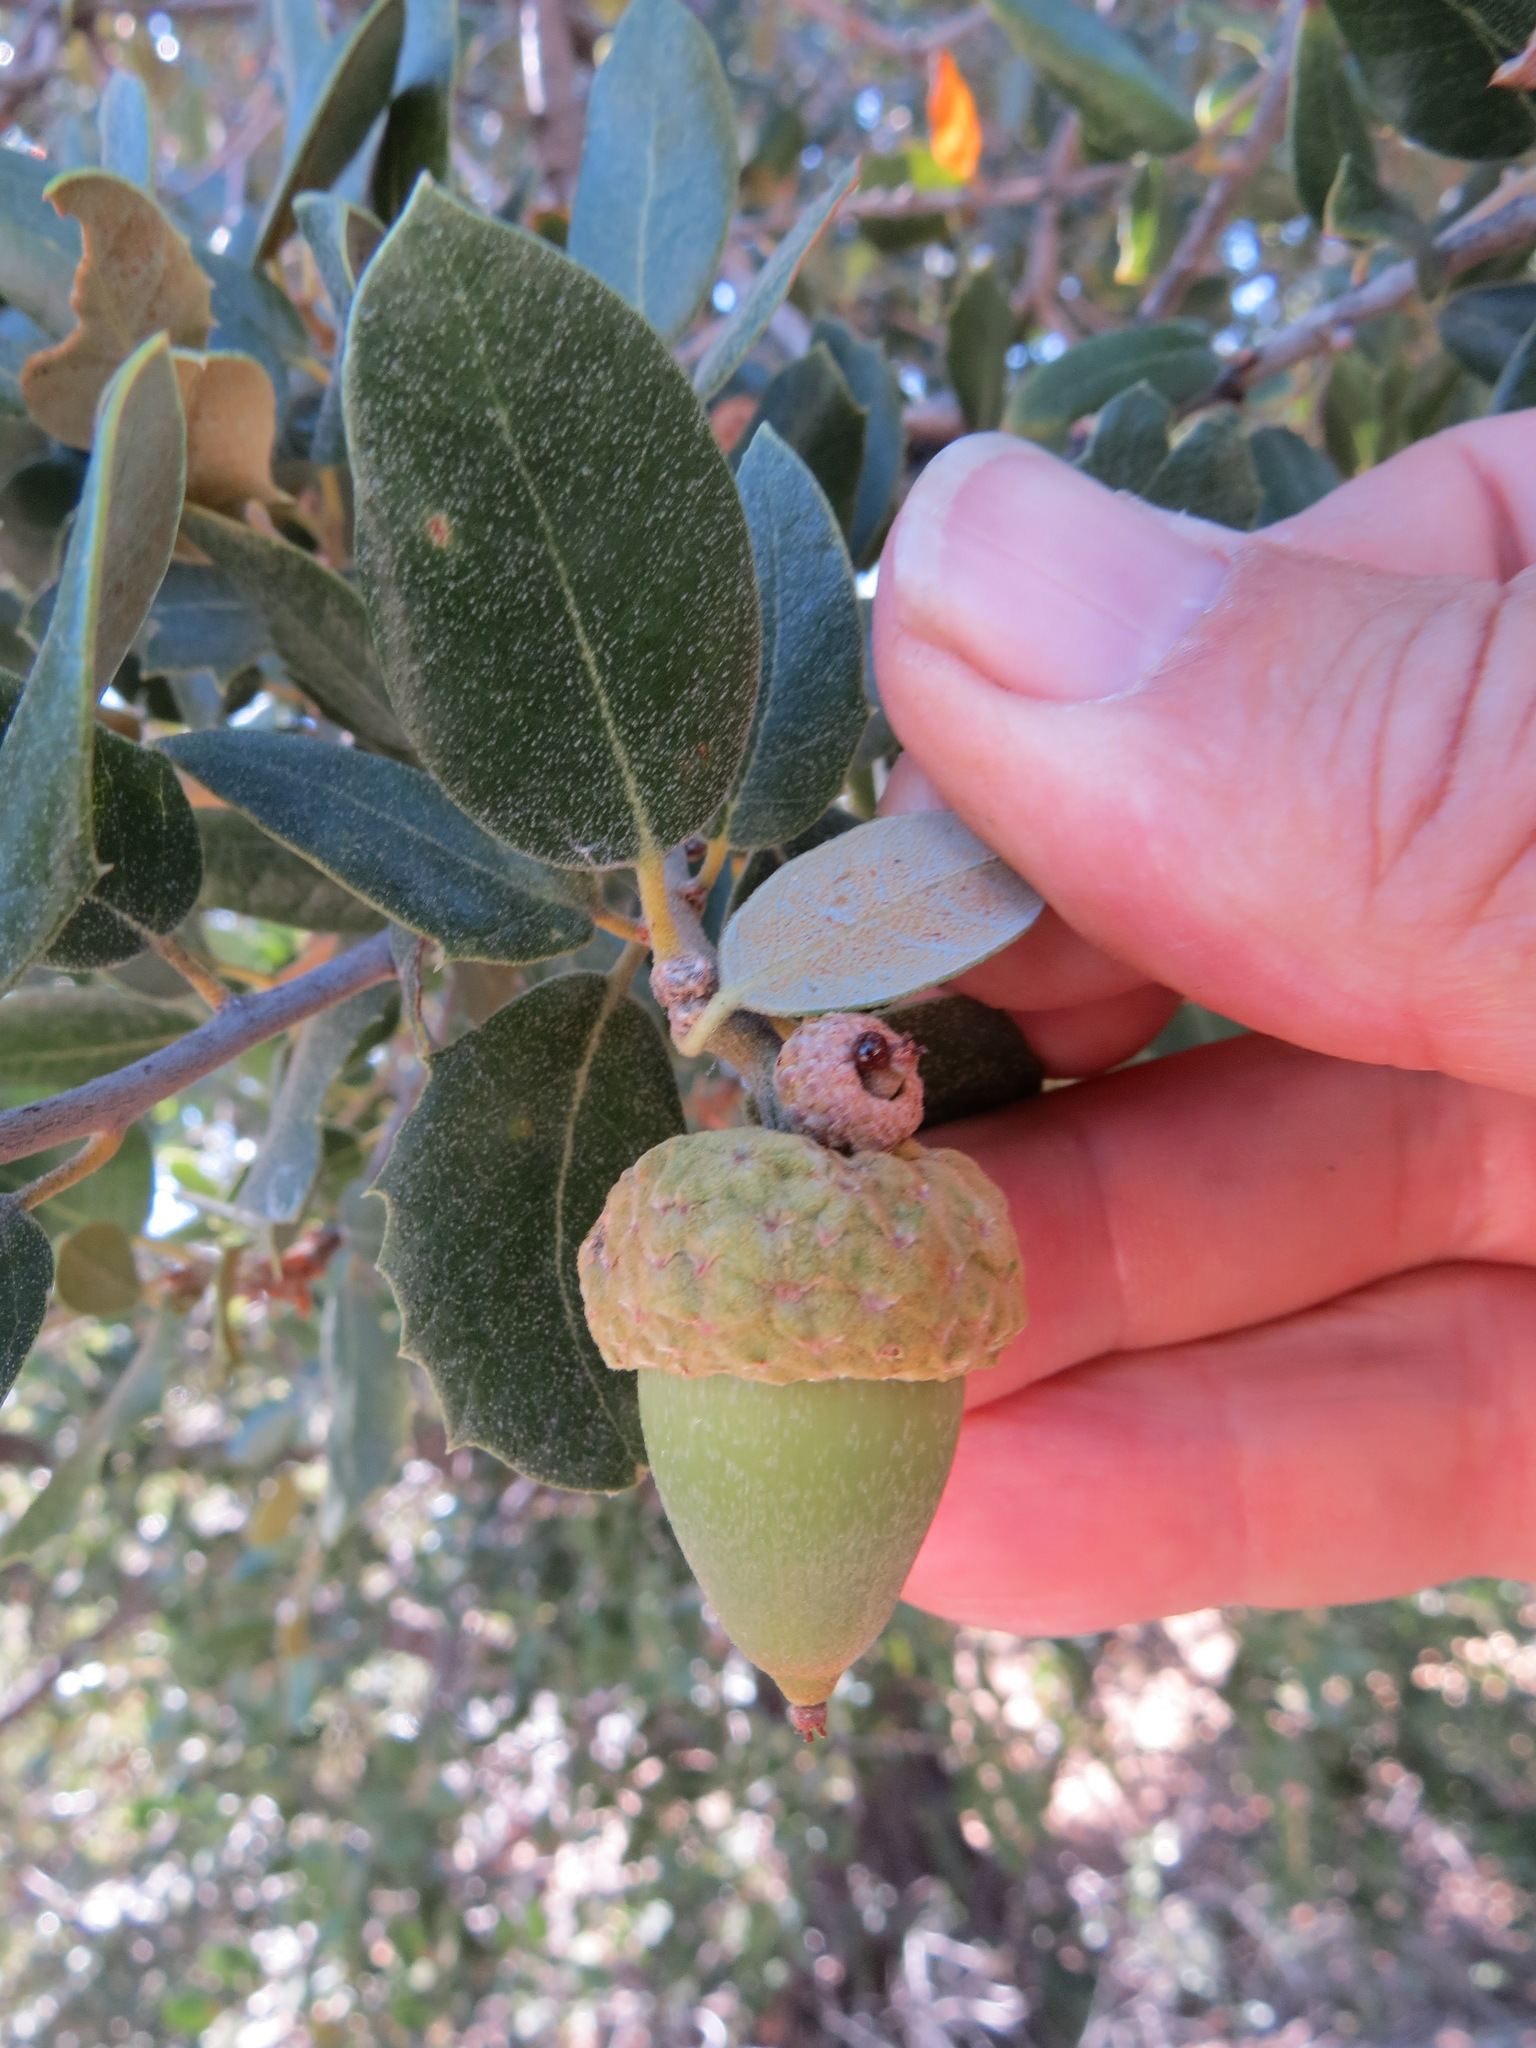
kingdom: Plantae
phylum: Tracheophyta
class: Magnoliopsida
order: Fagales
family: Fagaceae
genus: Quercus
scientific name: Quercus chrysolepis
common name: Canyon live oak
